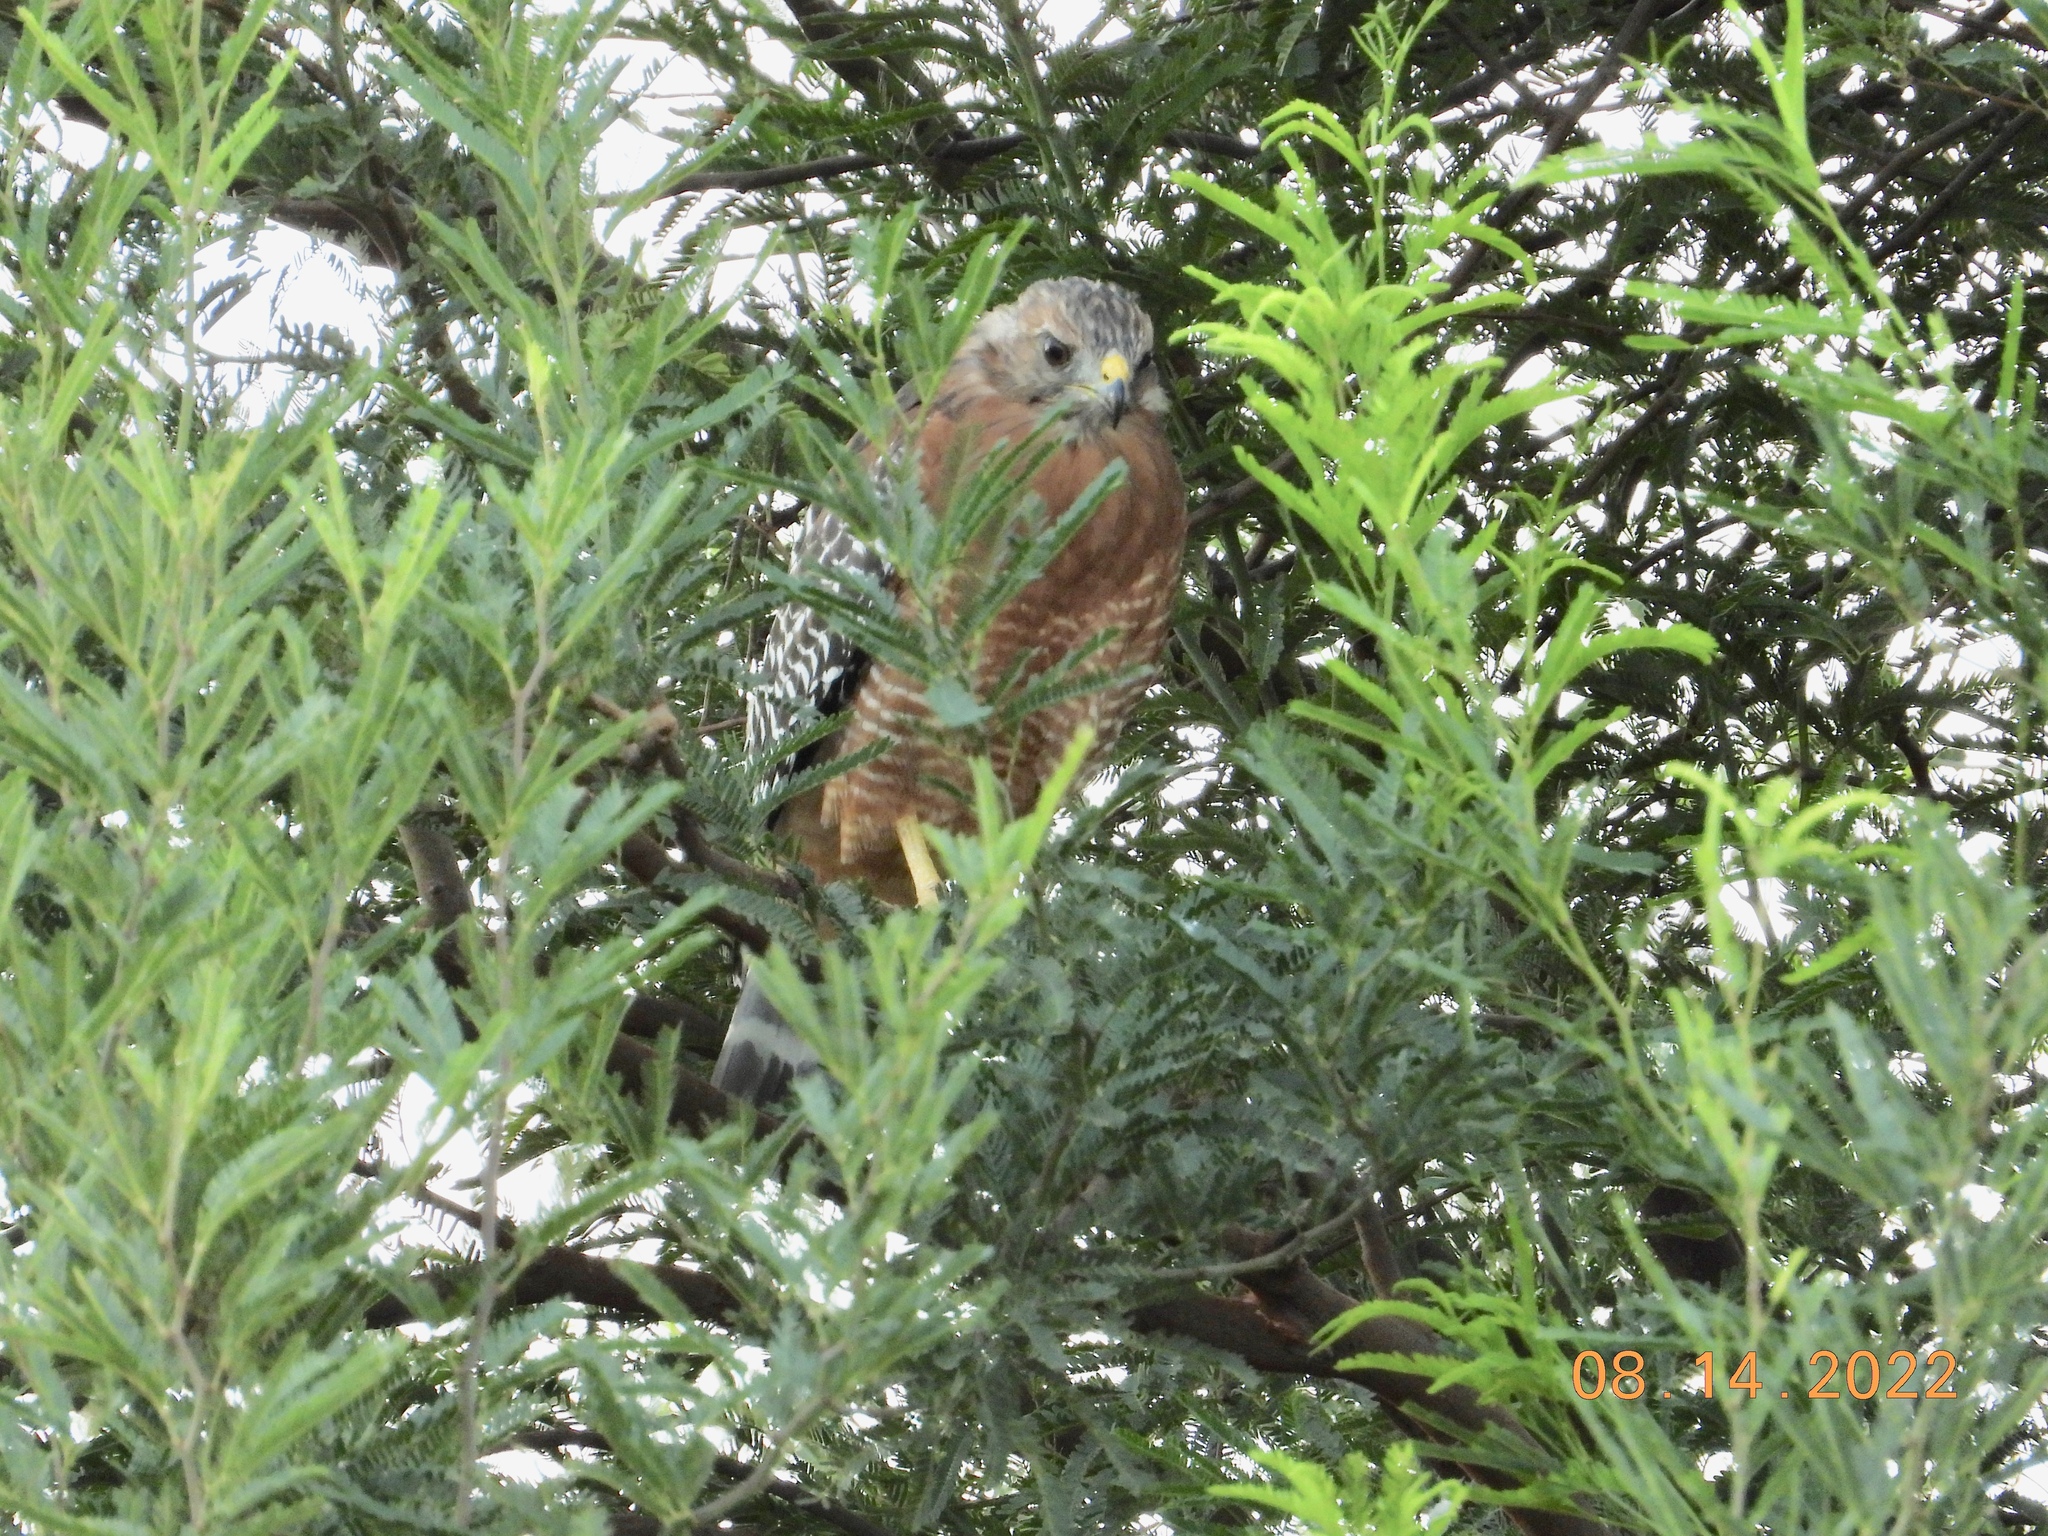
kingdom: Animalia
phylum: Chordata
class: Aves
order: Accipitriformes
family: Accipitridae
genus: Buteo
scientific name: Buteo lineatus
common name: Red-shouldered hawk
